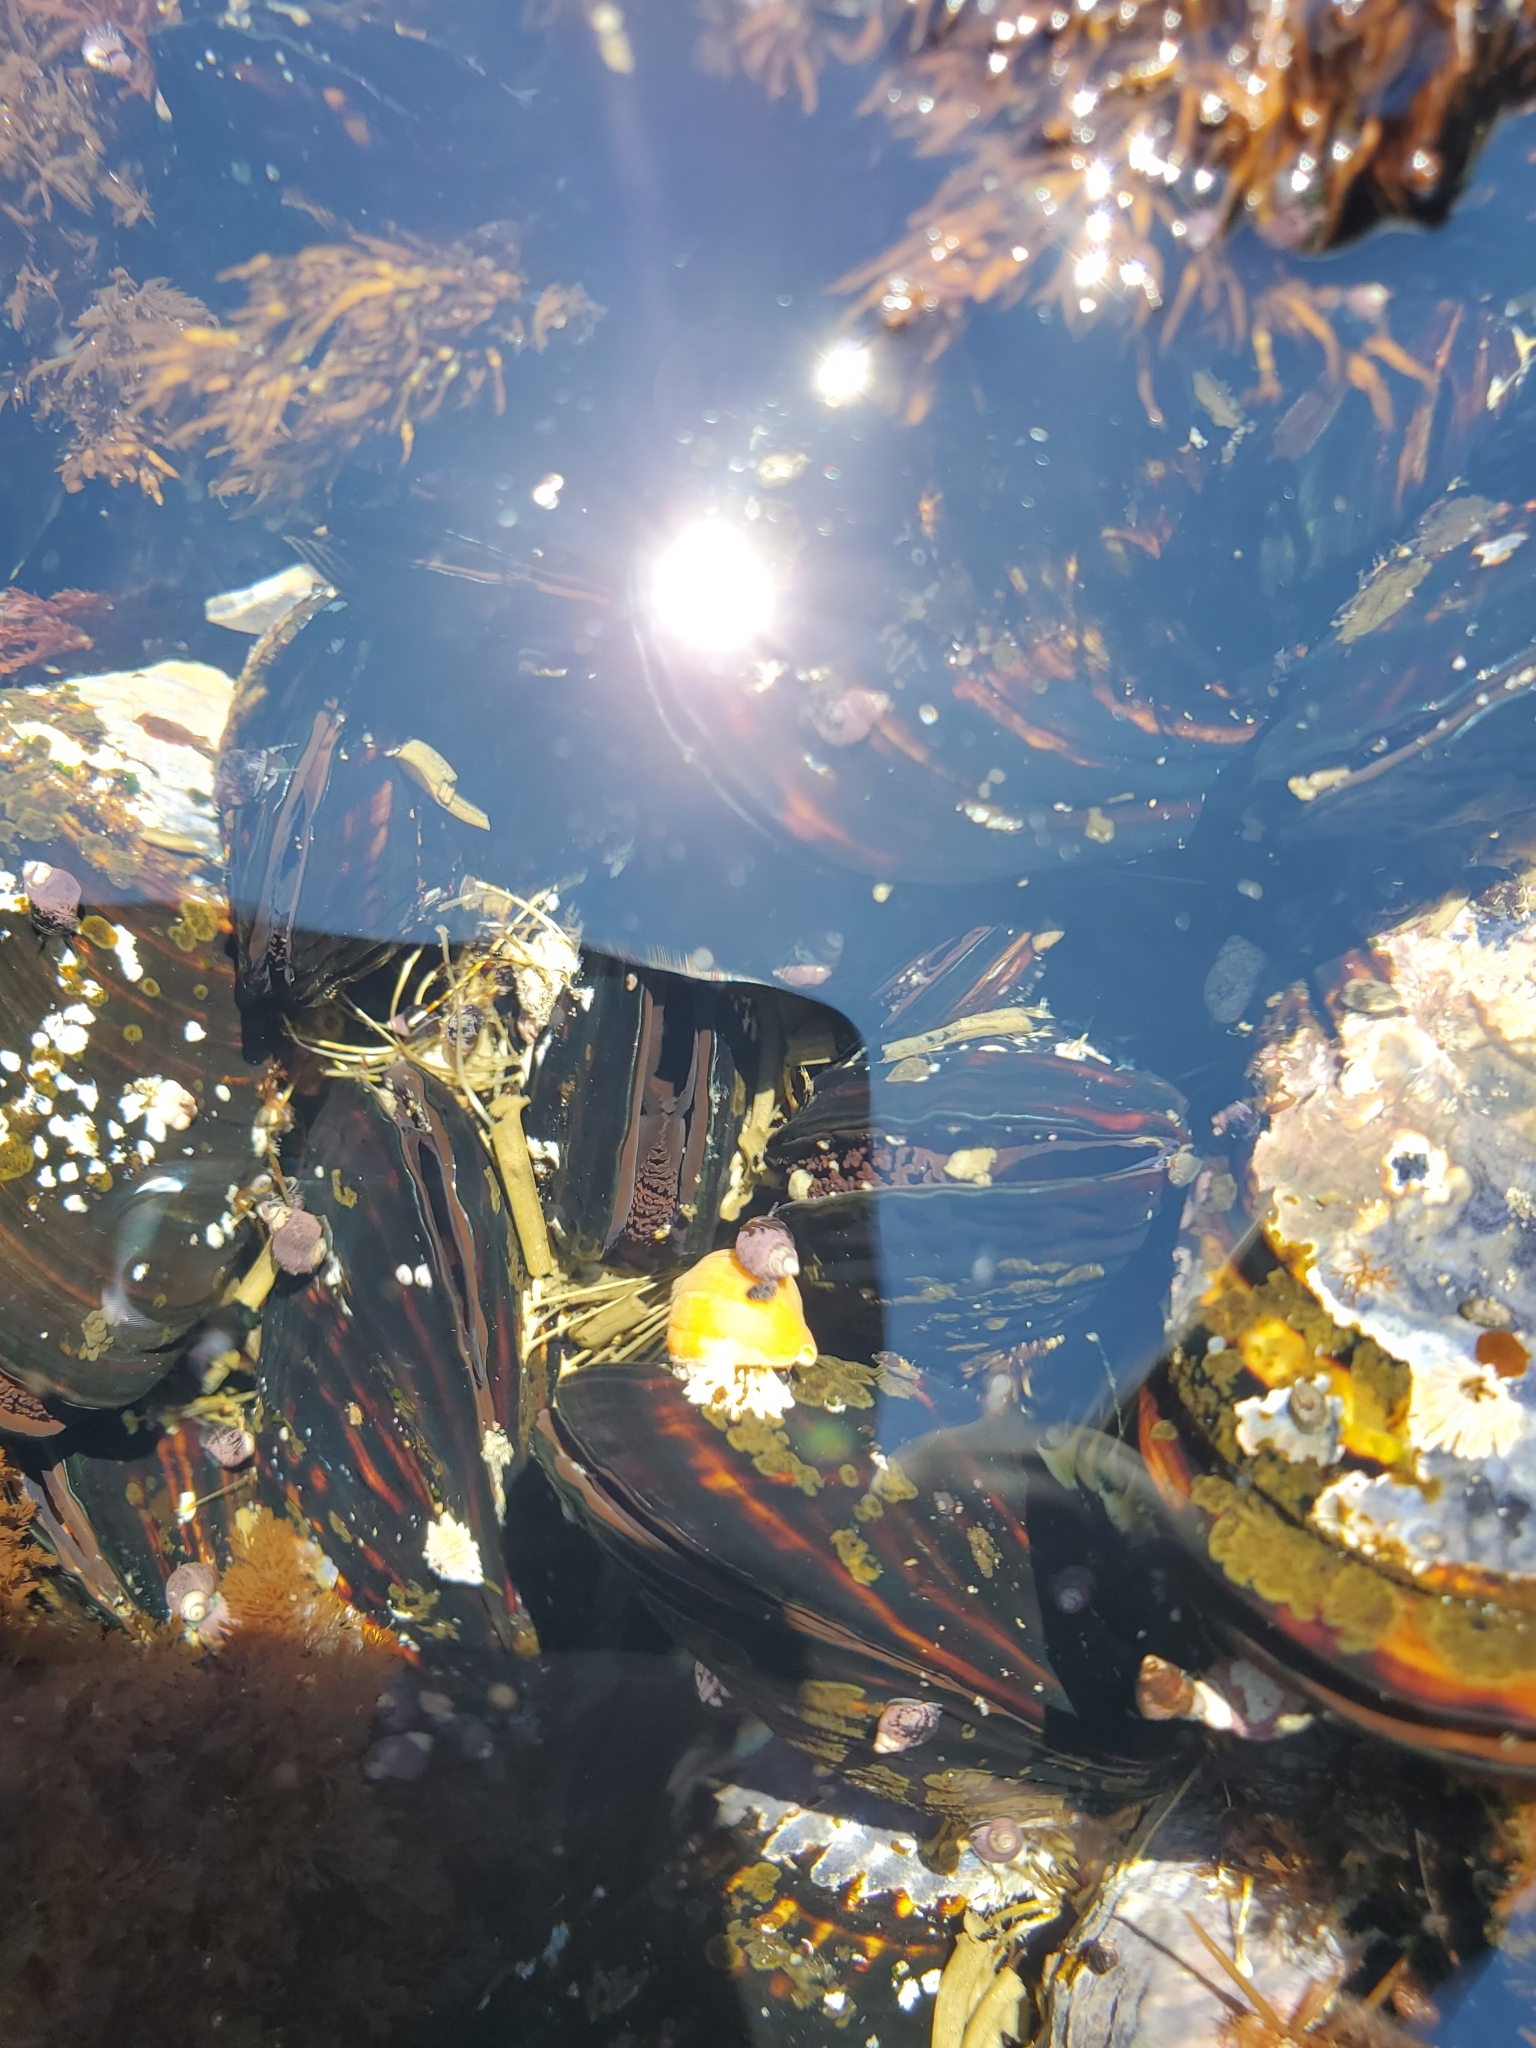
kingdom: Animalia
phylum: Mollusca
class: Bivalvia
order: Mytilida
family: Mytilidae
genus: Mytilus
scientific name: Mytilus californianus
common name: California mussel
